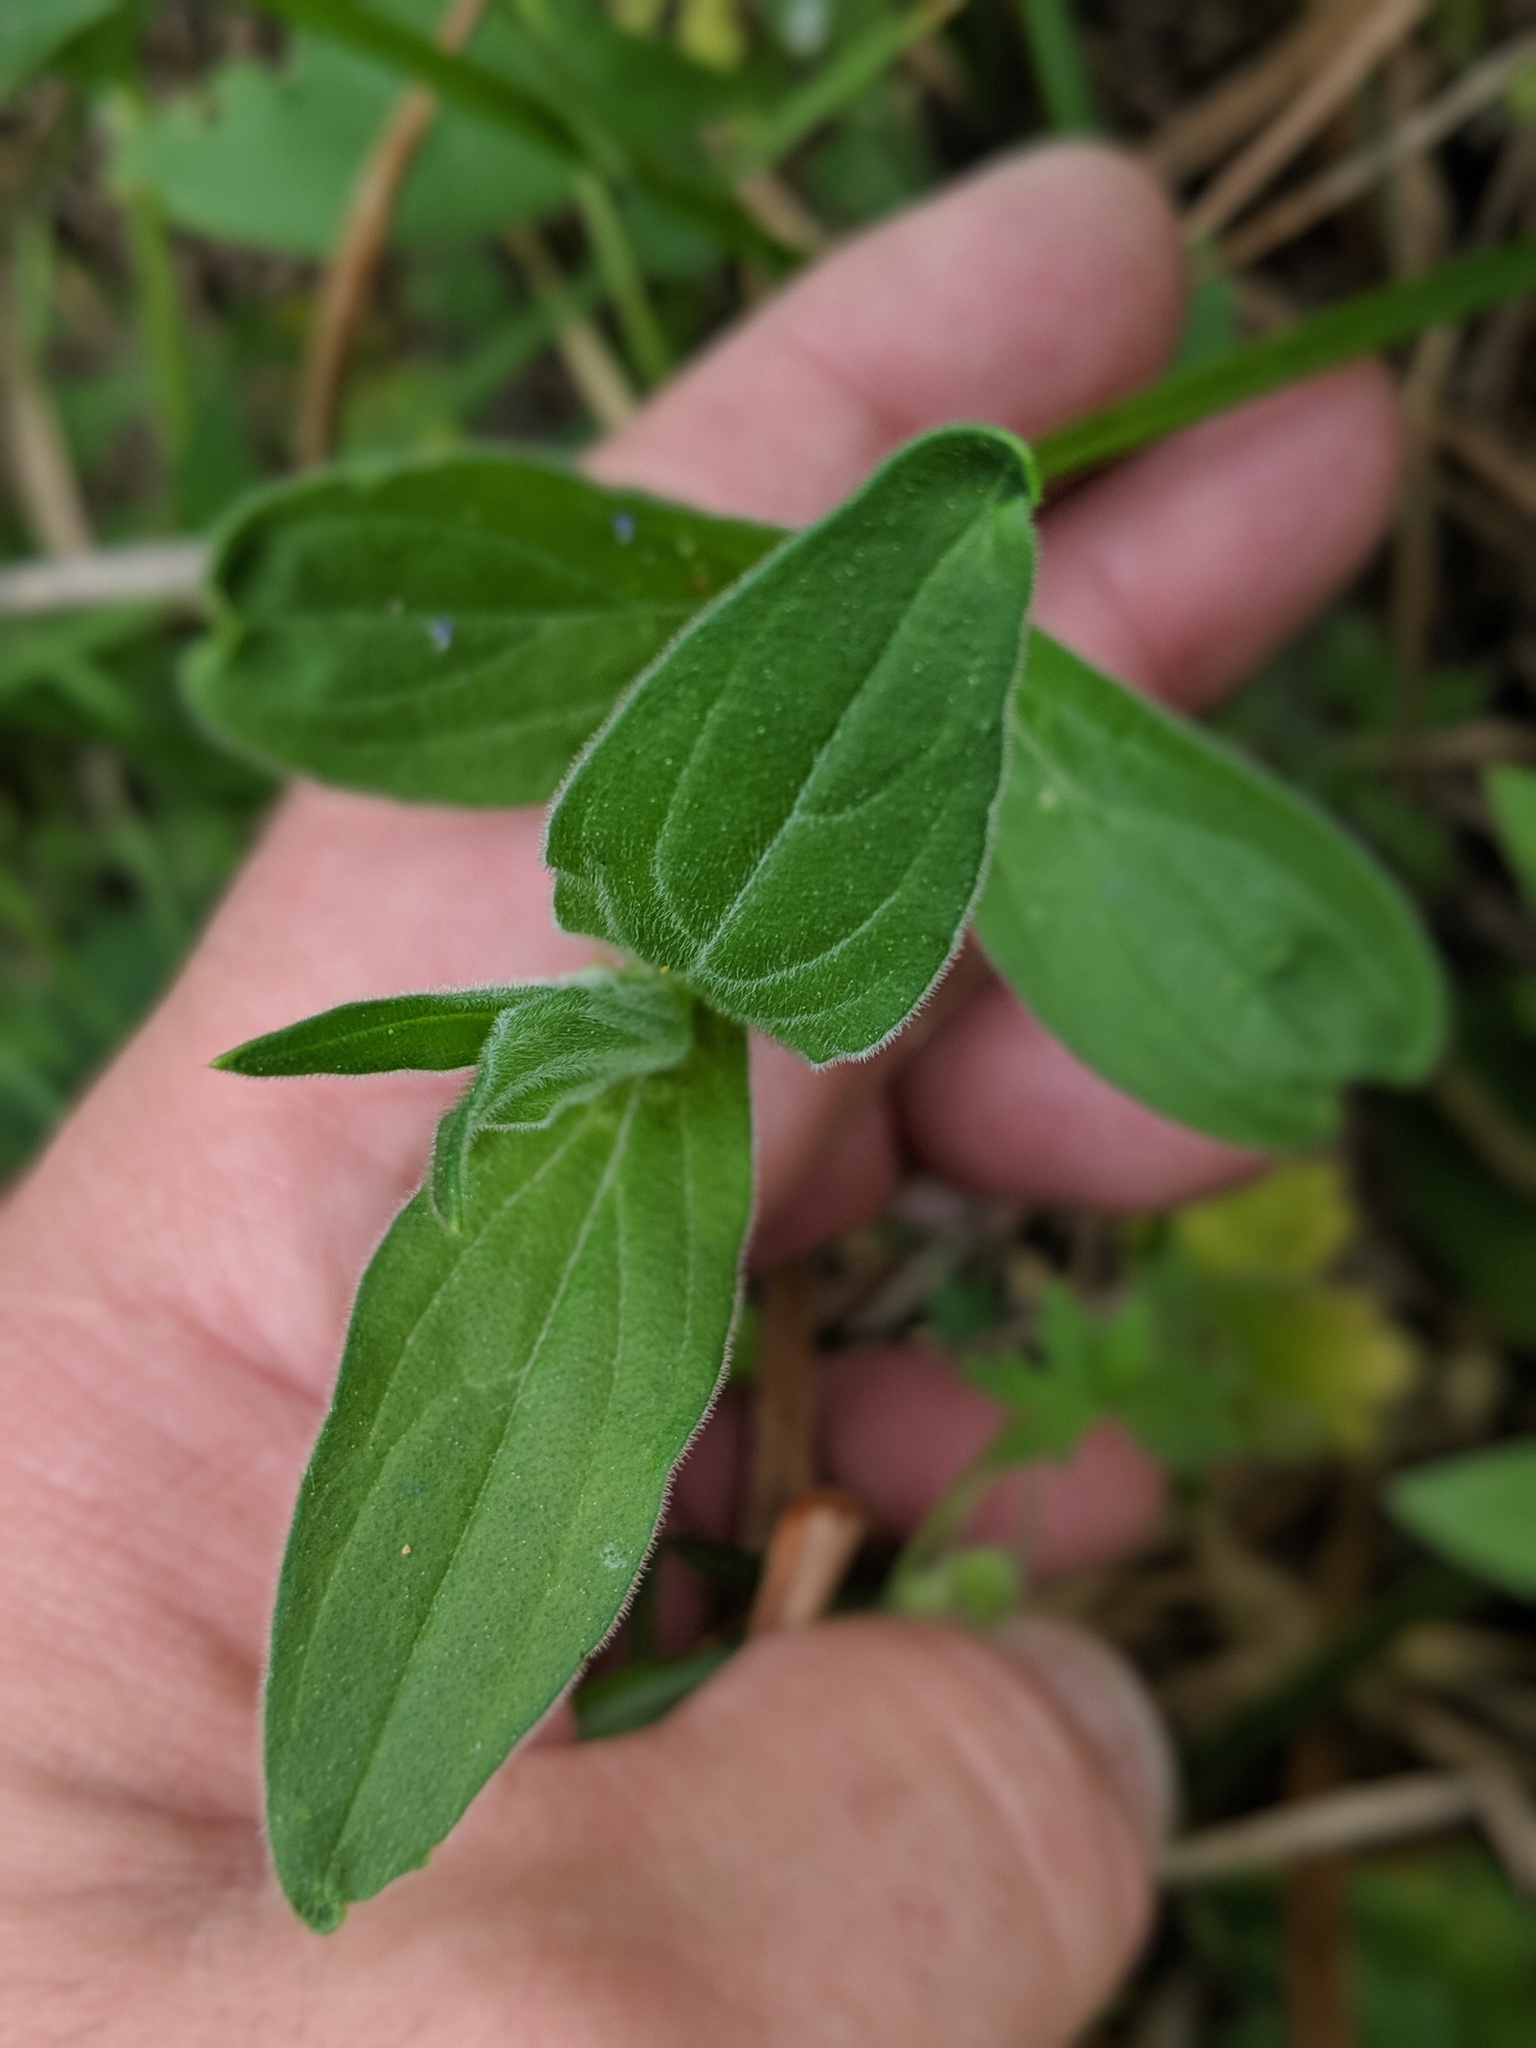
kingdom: Plantae
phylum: Tracheophyta
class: Magnoliopsida
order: Caryophyllales
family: Caryophyllaceae
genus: Silene
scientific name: Silene latifolia
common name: White campion
